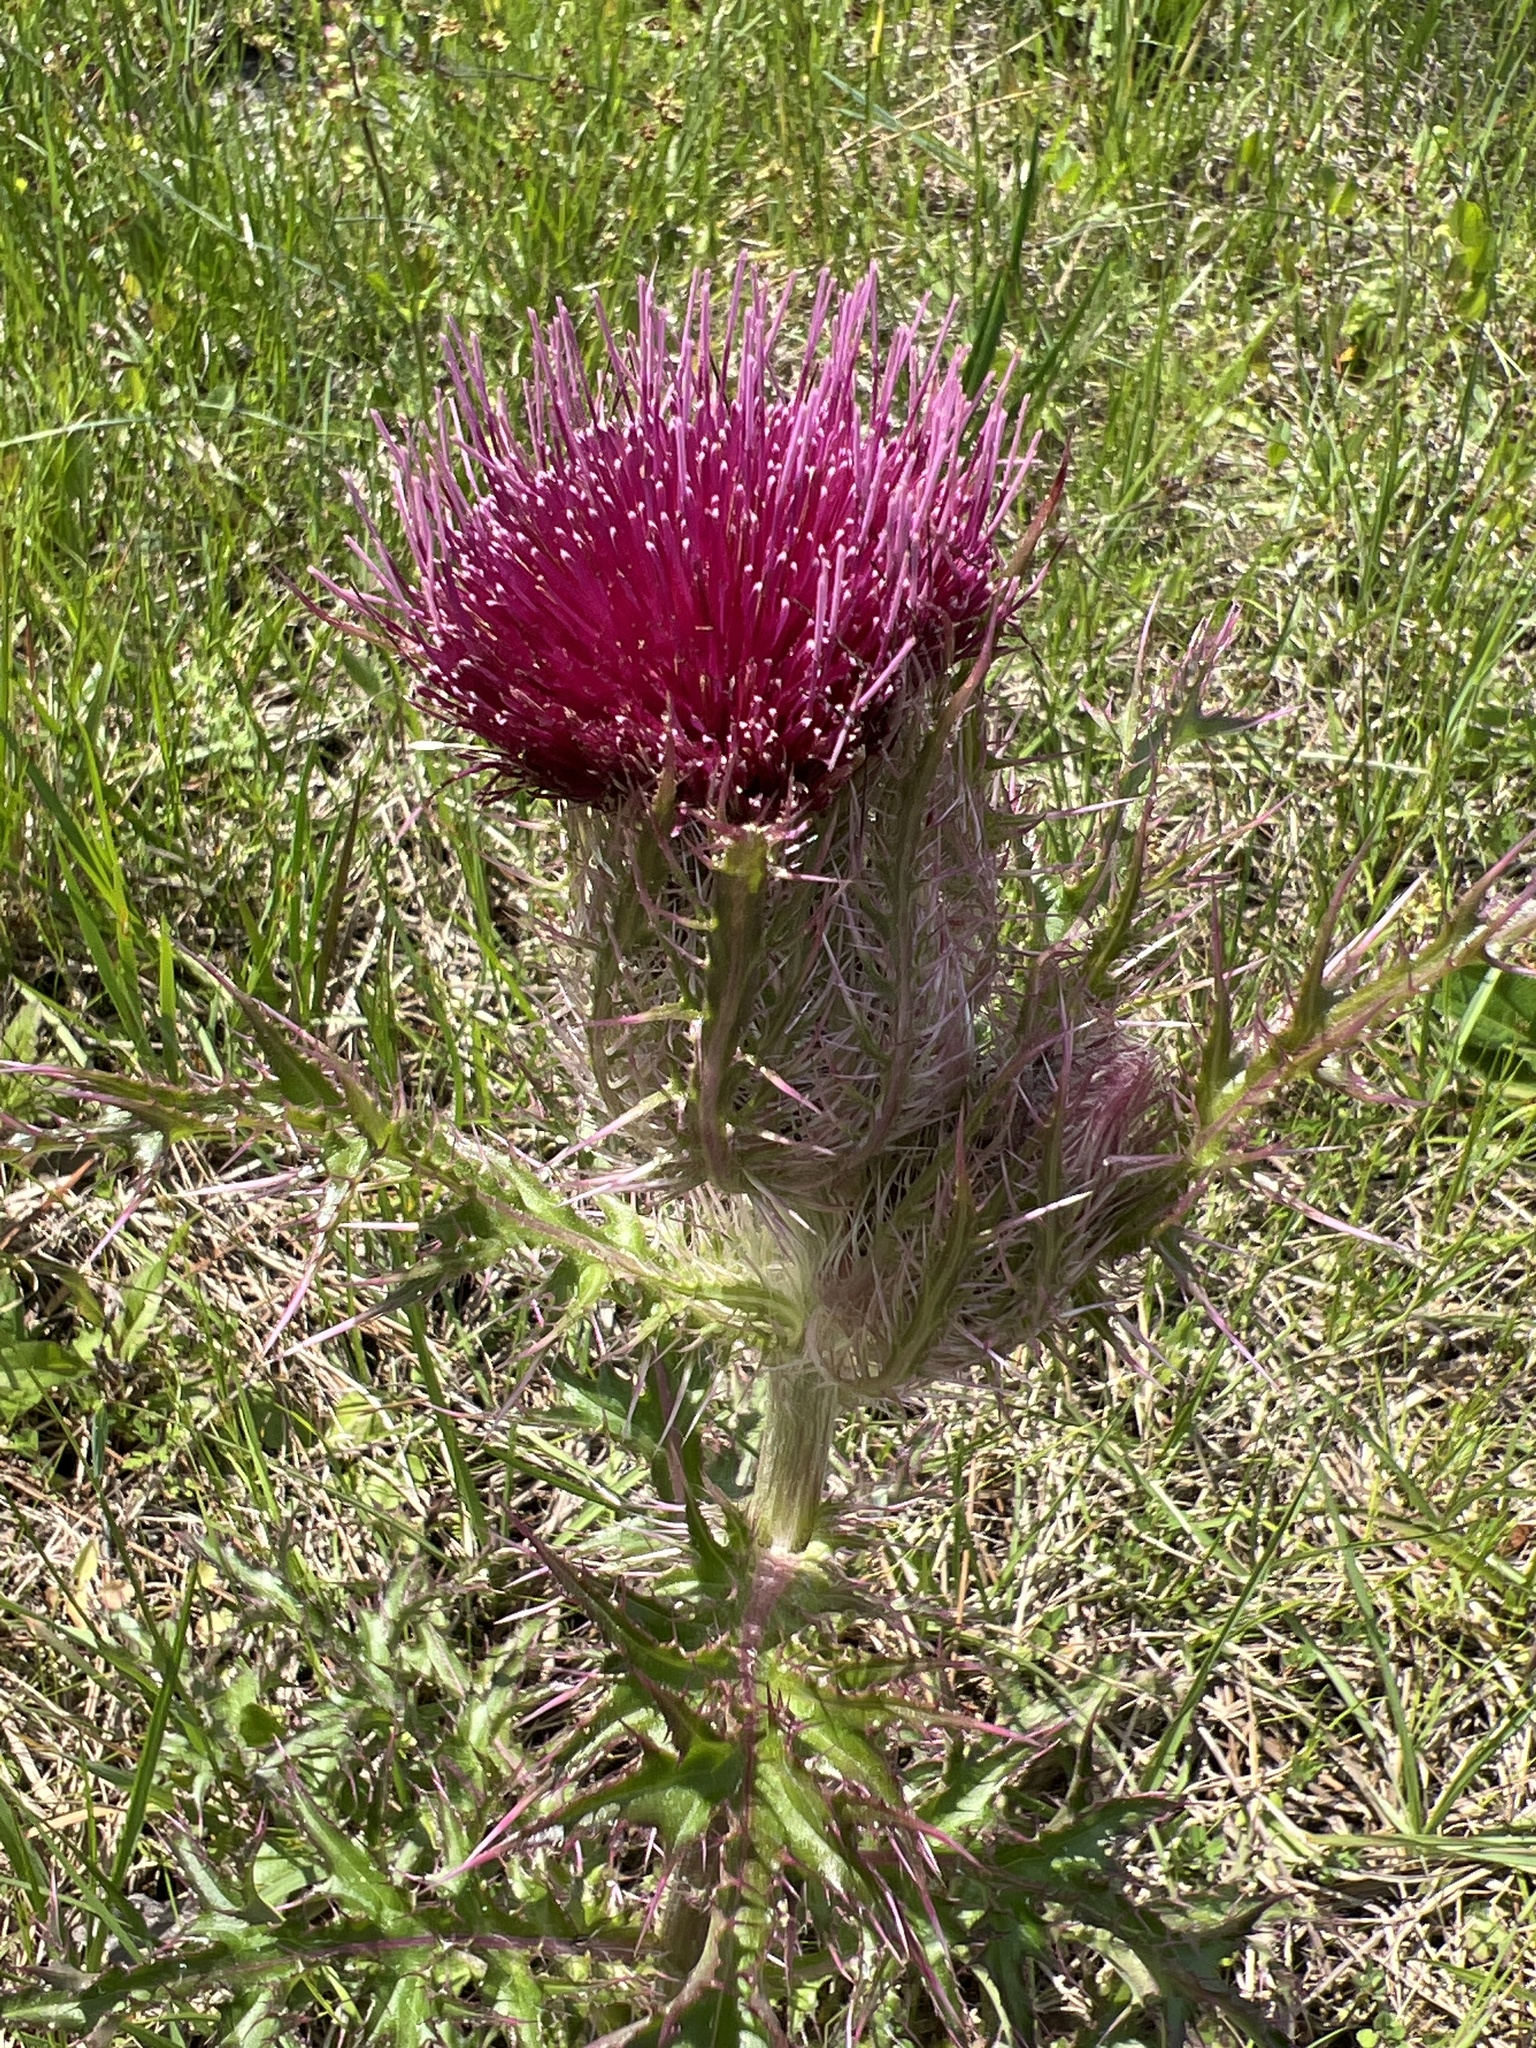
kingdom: Plantae
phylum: Tracheophyta
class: Magnoliopsida
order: Asterales
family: Asteraceae
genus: Cirsium
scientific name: Cirsium horridulum
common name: Bristly thistle
